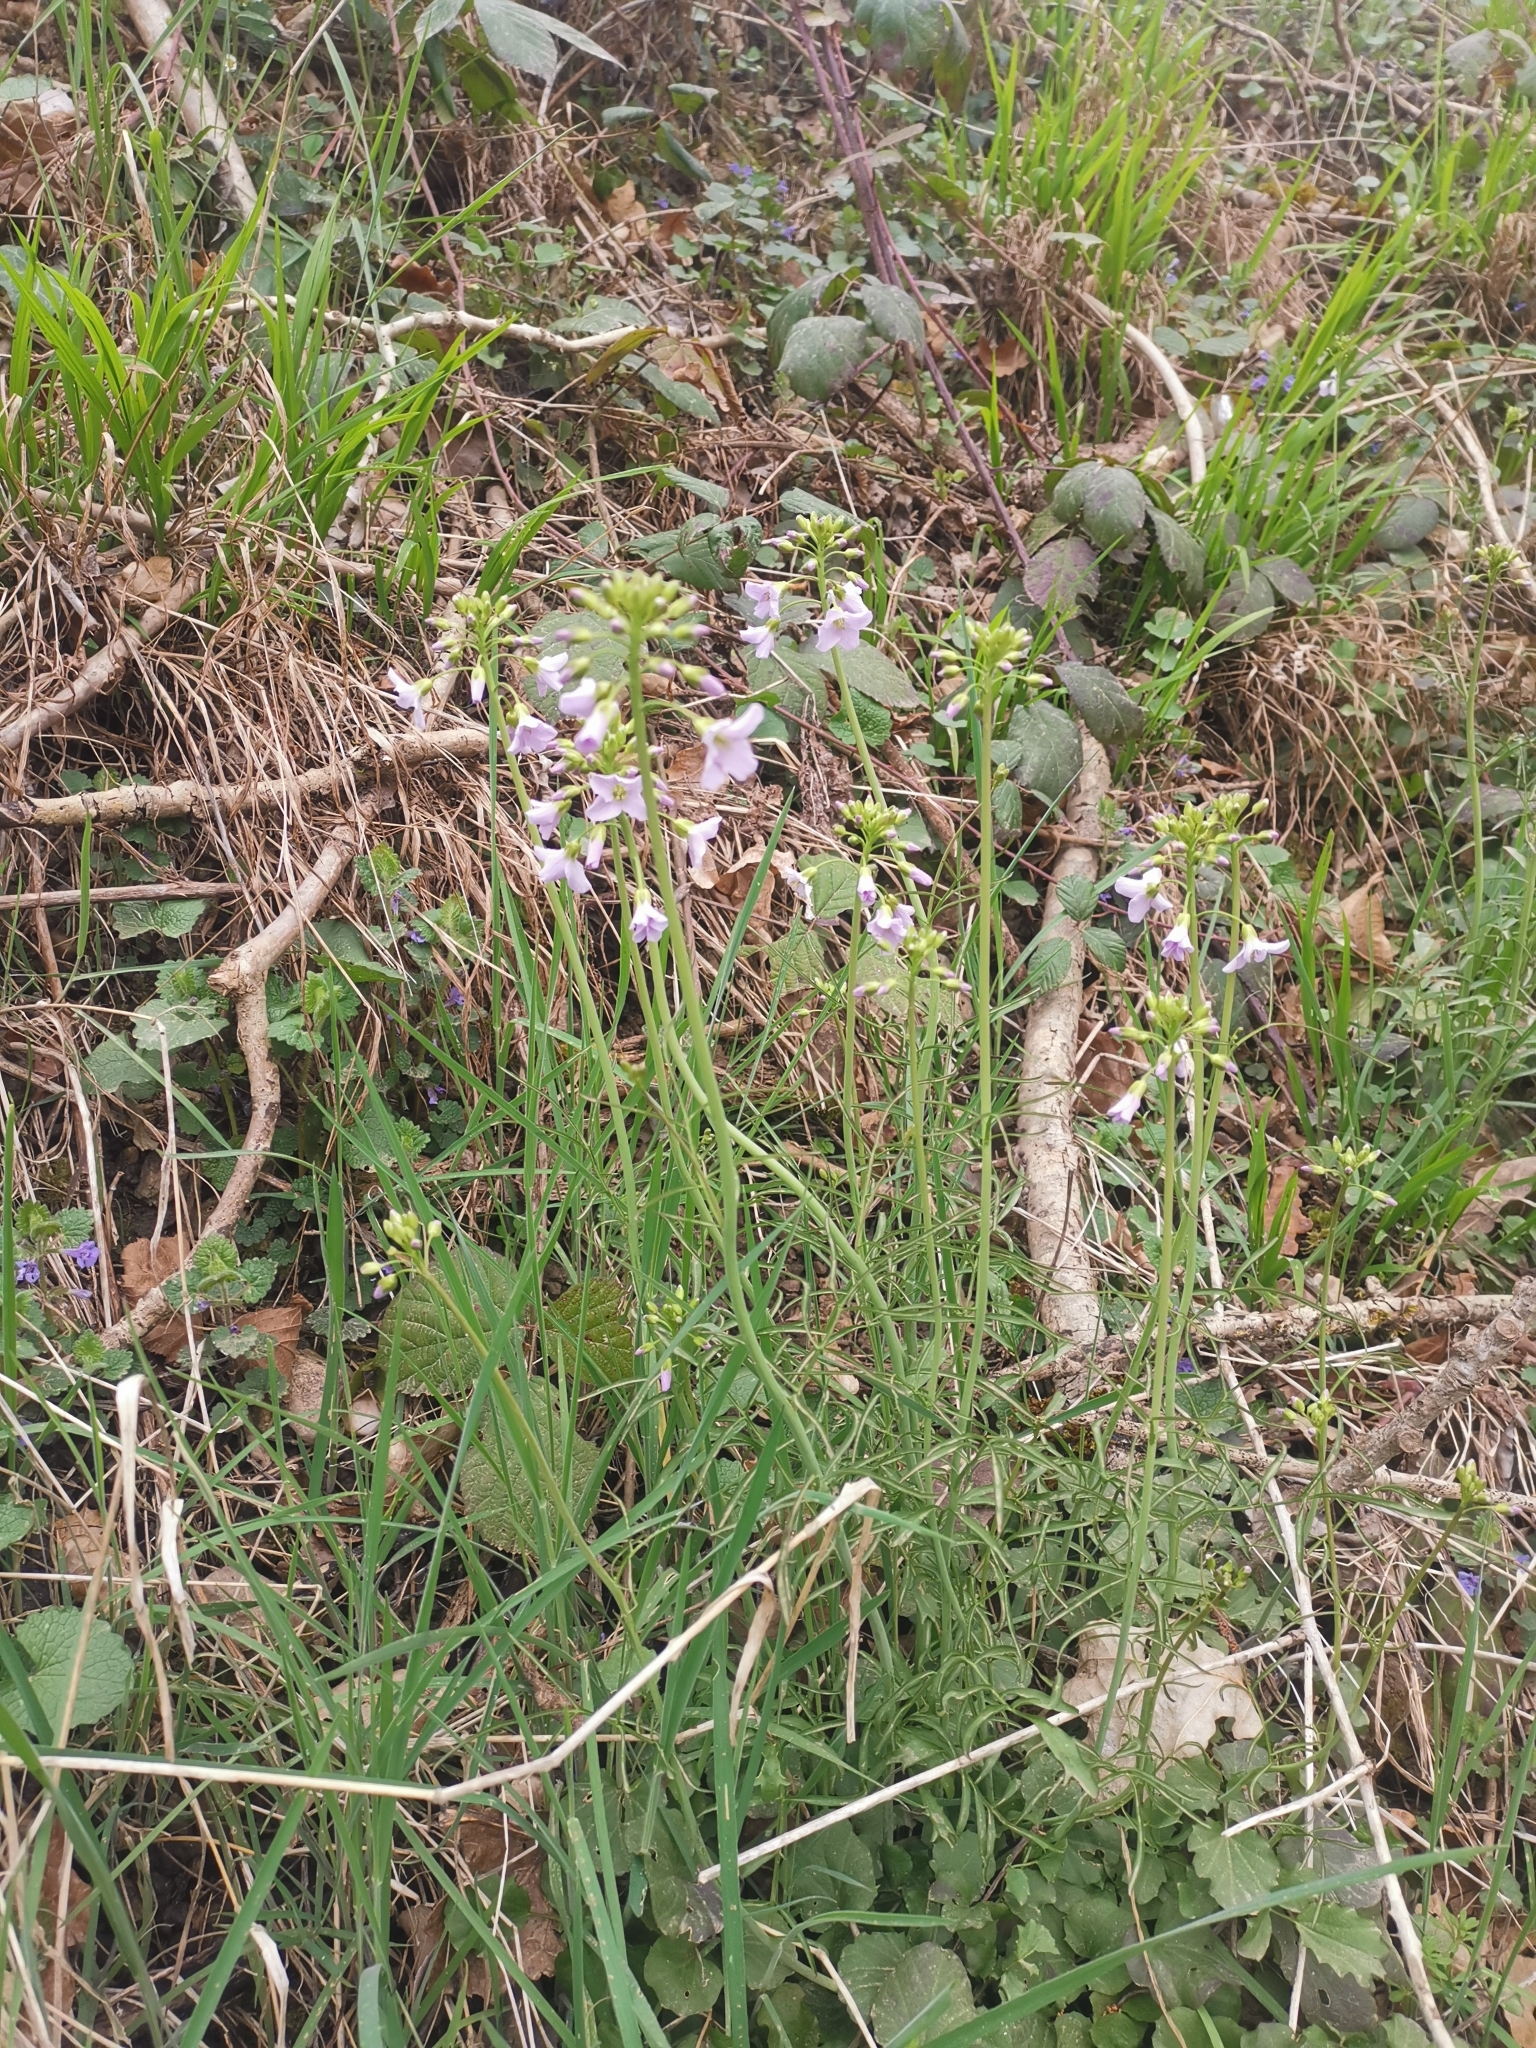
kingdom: Plantae
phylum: Tracheophyta
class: Magnoliopsida
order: Brassicales
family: Brassicaceae
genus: Cardamine
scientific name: Cardamine pratensis
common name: Cuckoo flower
